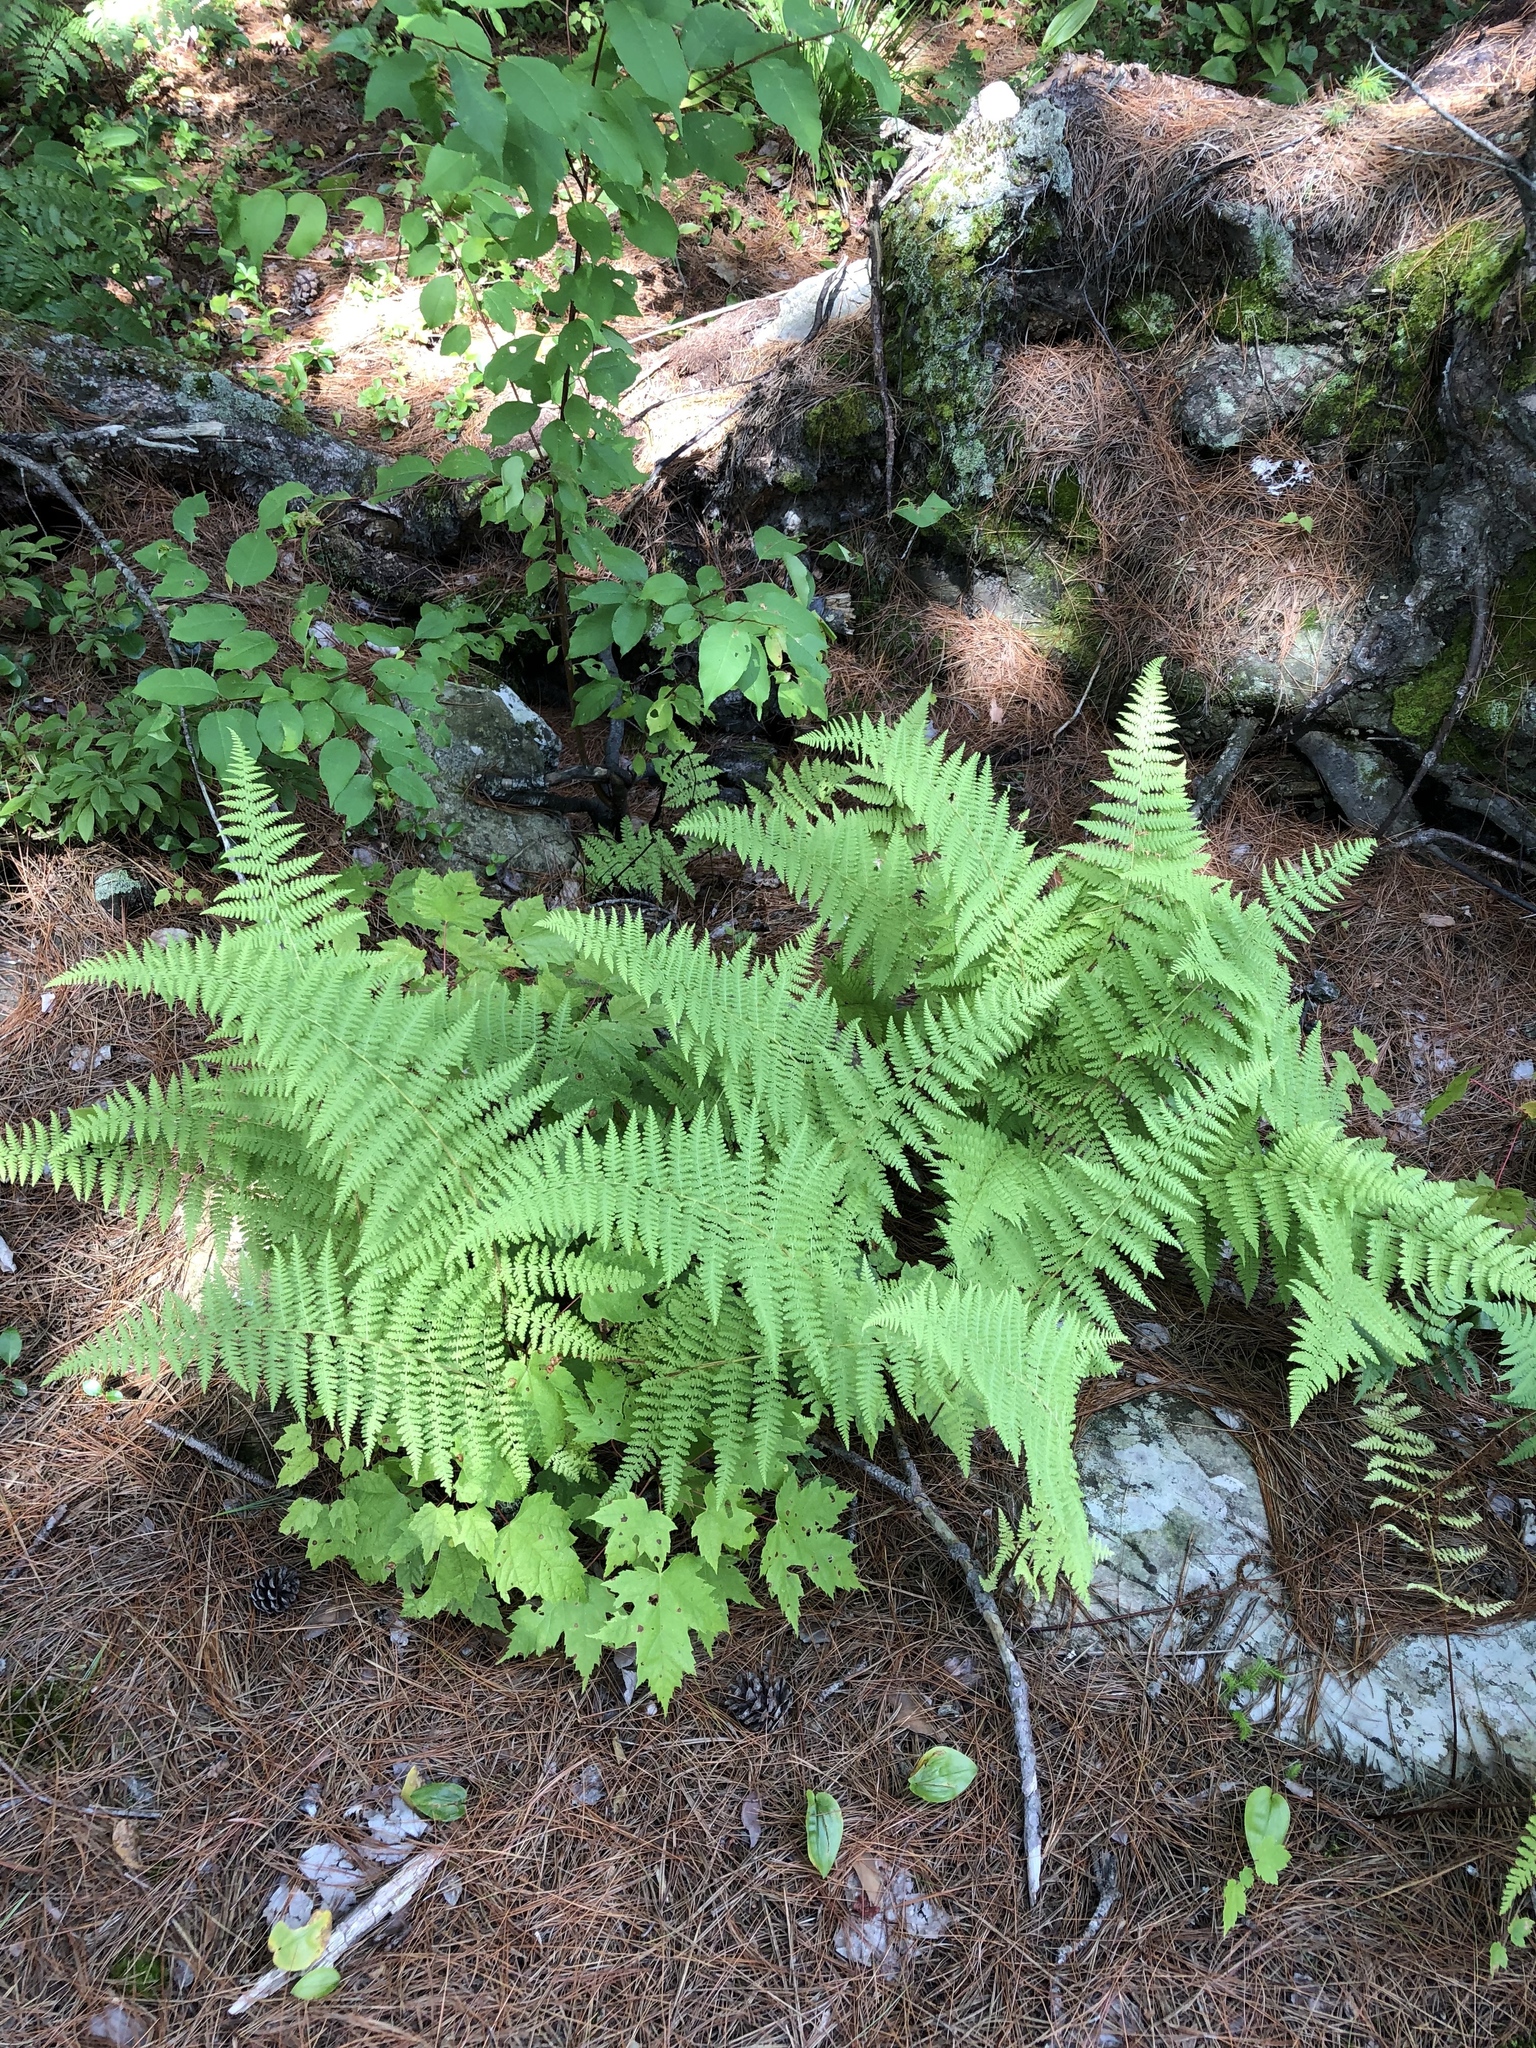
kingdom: Plantae
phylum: Tracheophyta
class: Polypodiopsida
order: Polypodiales
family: Dennstaedtiaceae
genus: Sitobolium
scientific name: Sitobolium punctilobum
